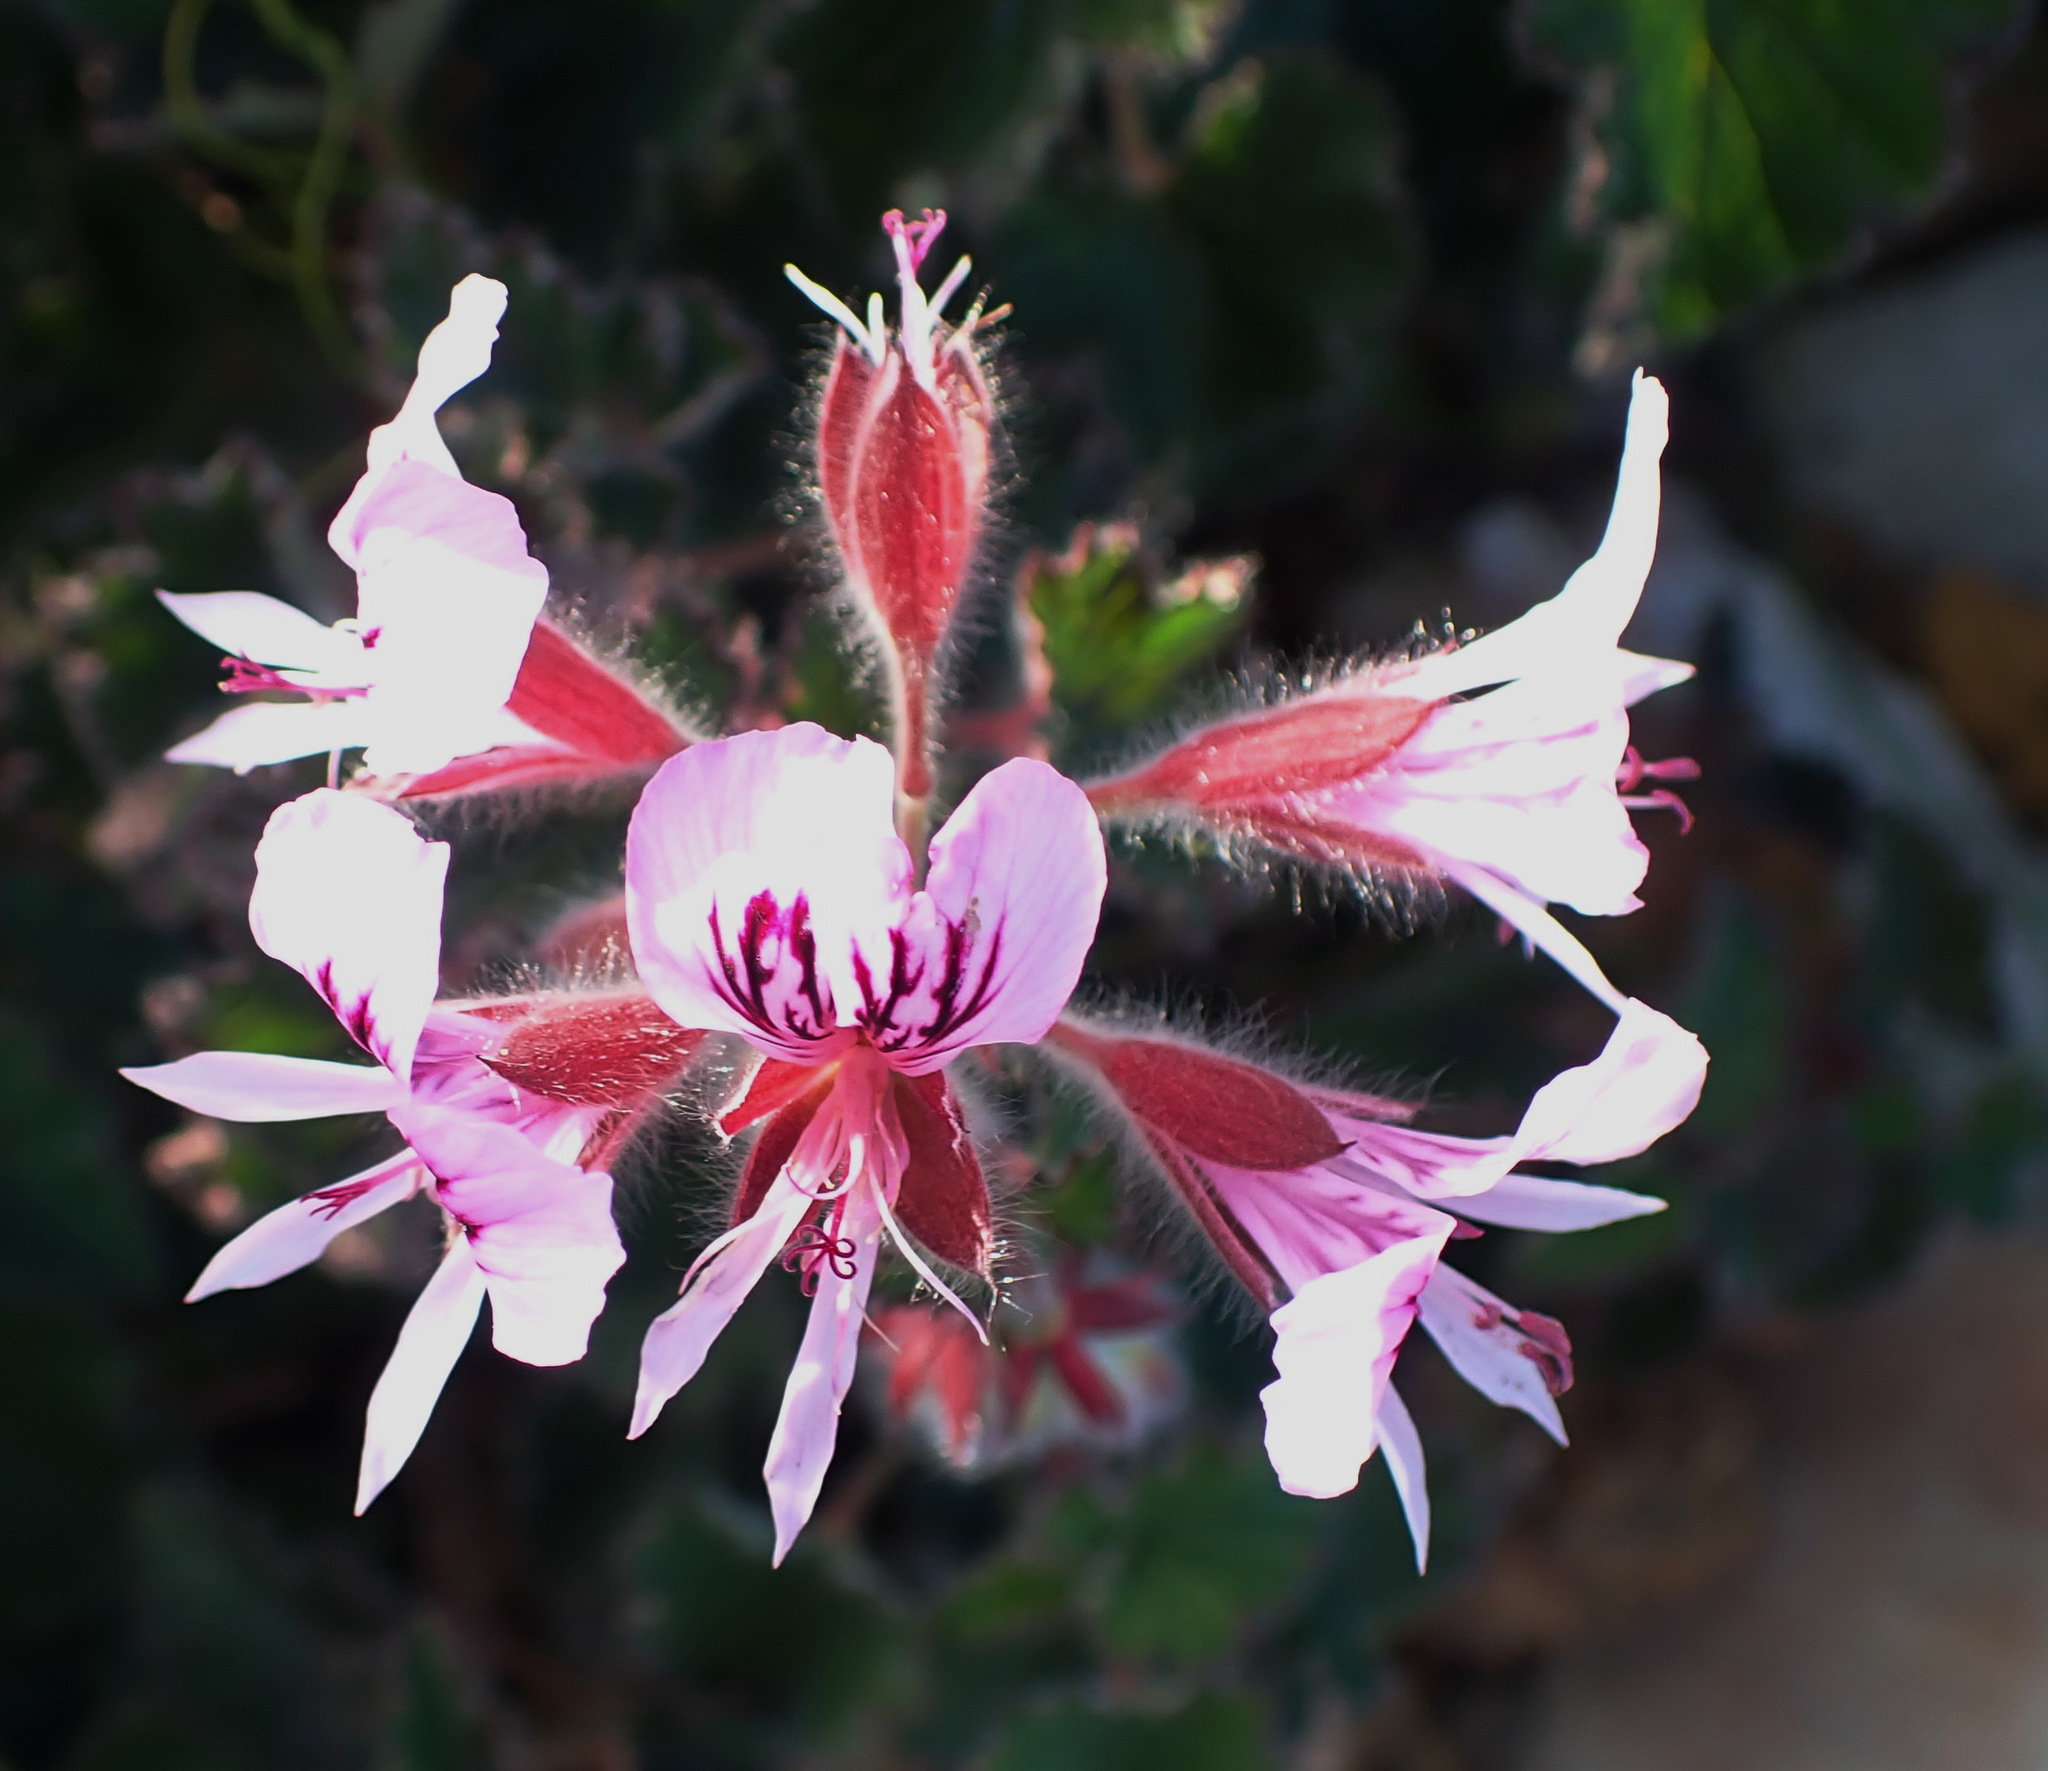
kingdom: Plantae
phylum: Tracheophyta
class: Magnoliopsida
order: Geraniales
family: Geraniaceae
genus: Pelargonium
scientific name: Pelargonium cordifolium
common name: Heart-leaf pelargonium
